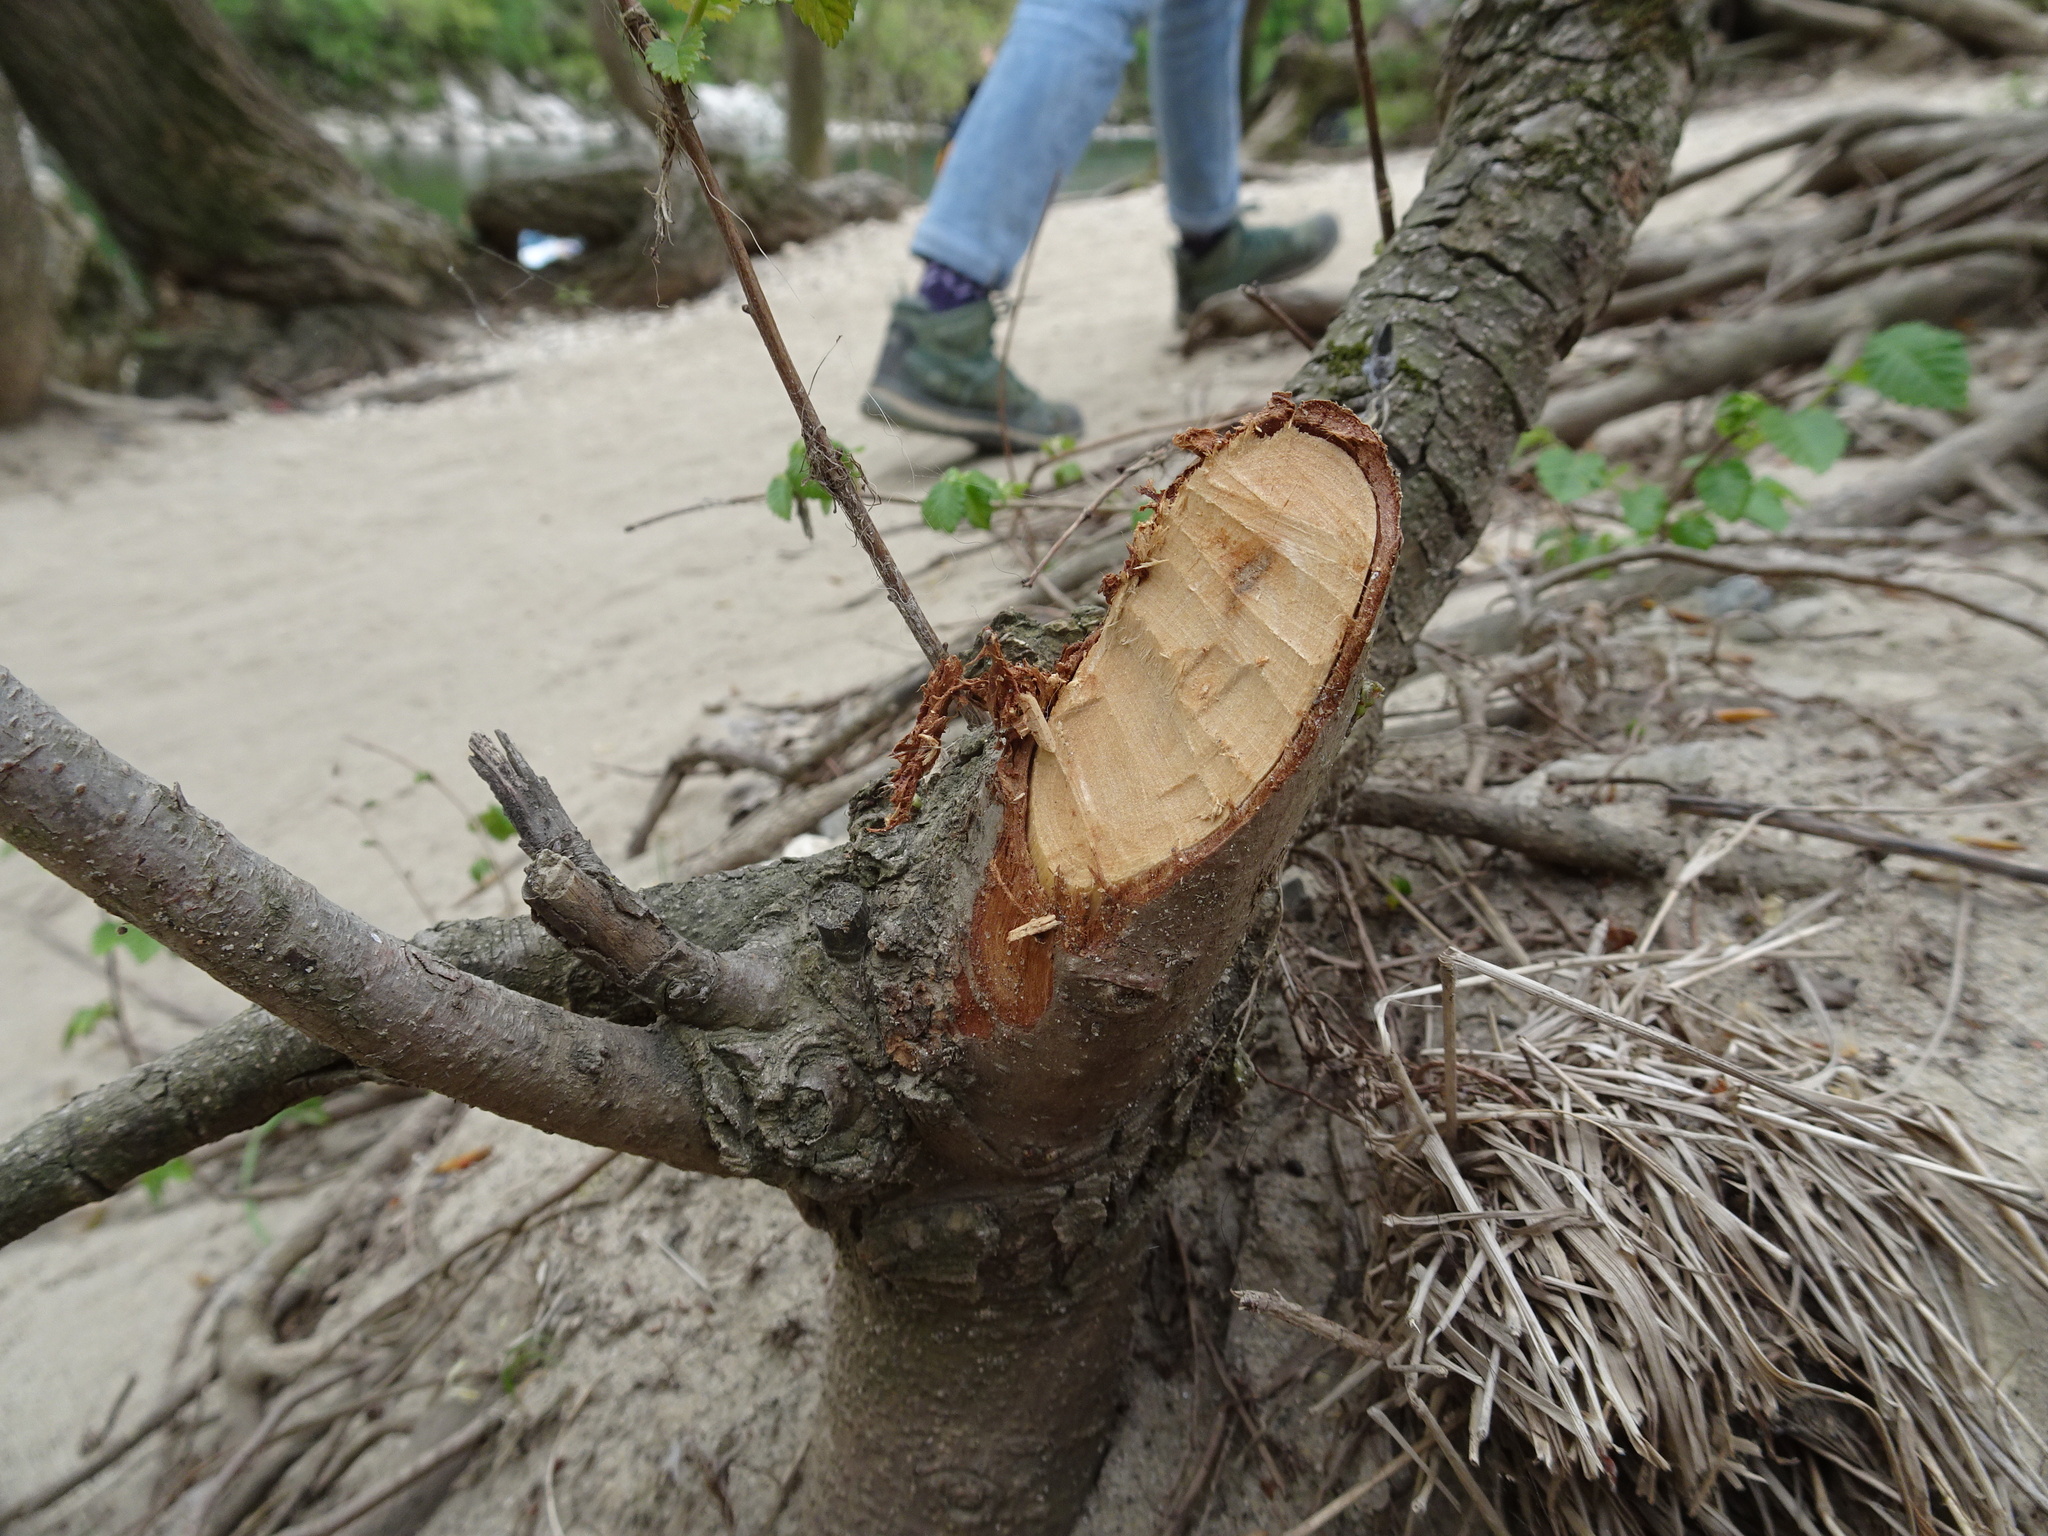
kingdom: Animalia
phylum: Chordata
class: Mammalia
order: Rodentia
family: Castoridae
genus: Castor
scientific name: Castor fiber
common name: Eurasian beaver
